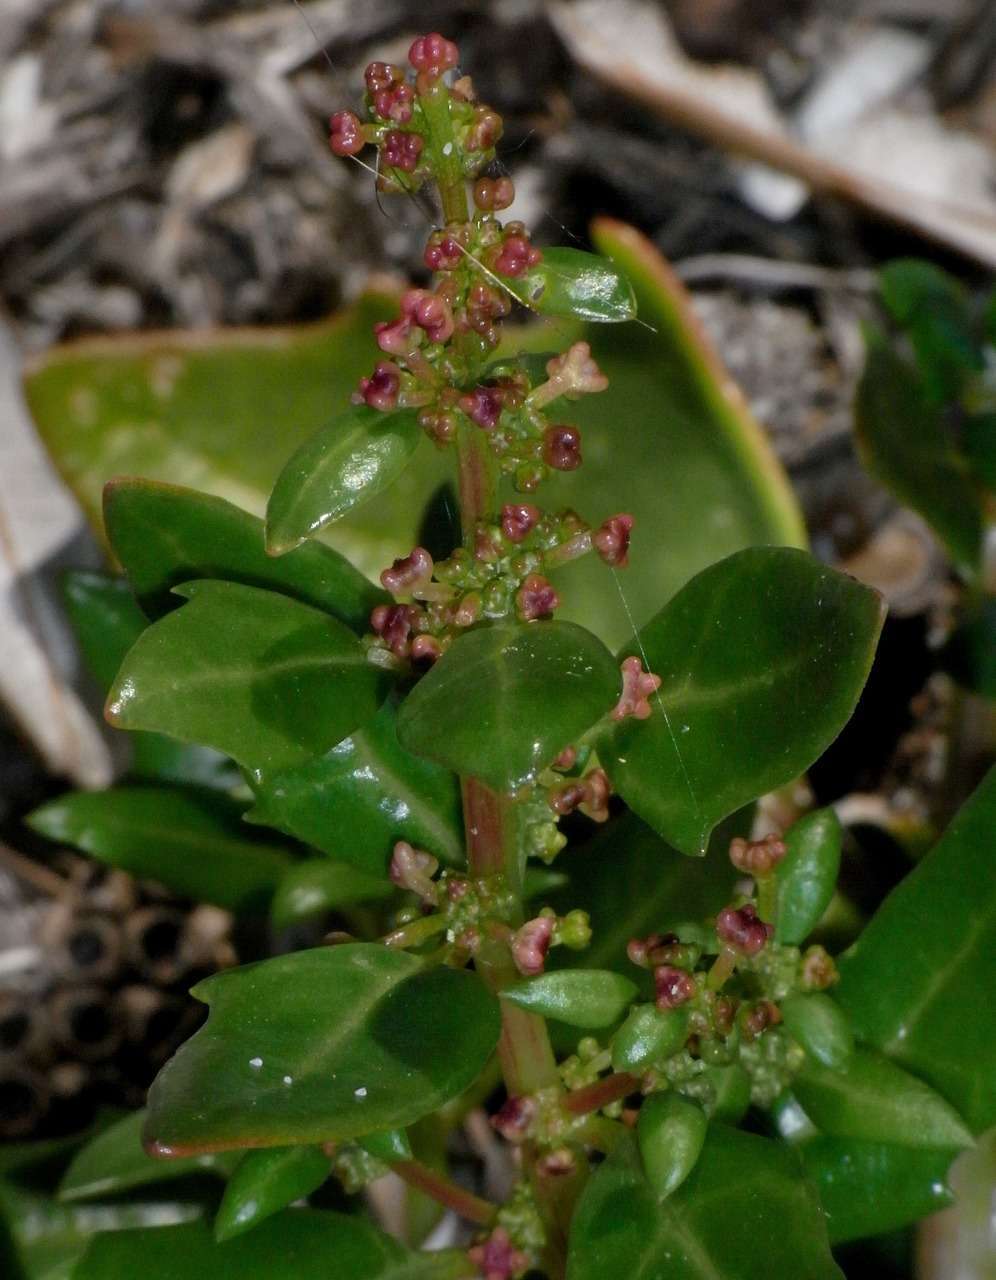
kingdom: Plantae
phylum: Tracheophyta
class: Magnoliopsida
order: Caryophyllales
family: Amaranthaceae
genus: Chenopodium
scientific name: Chenopodium candolleanum
